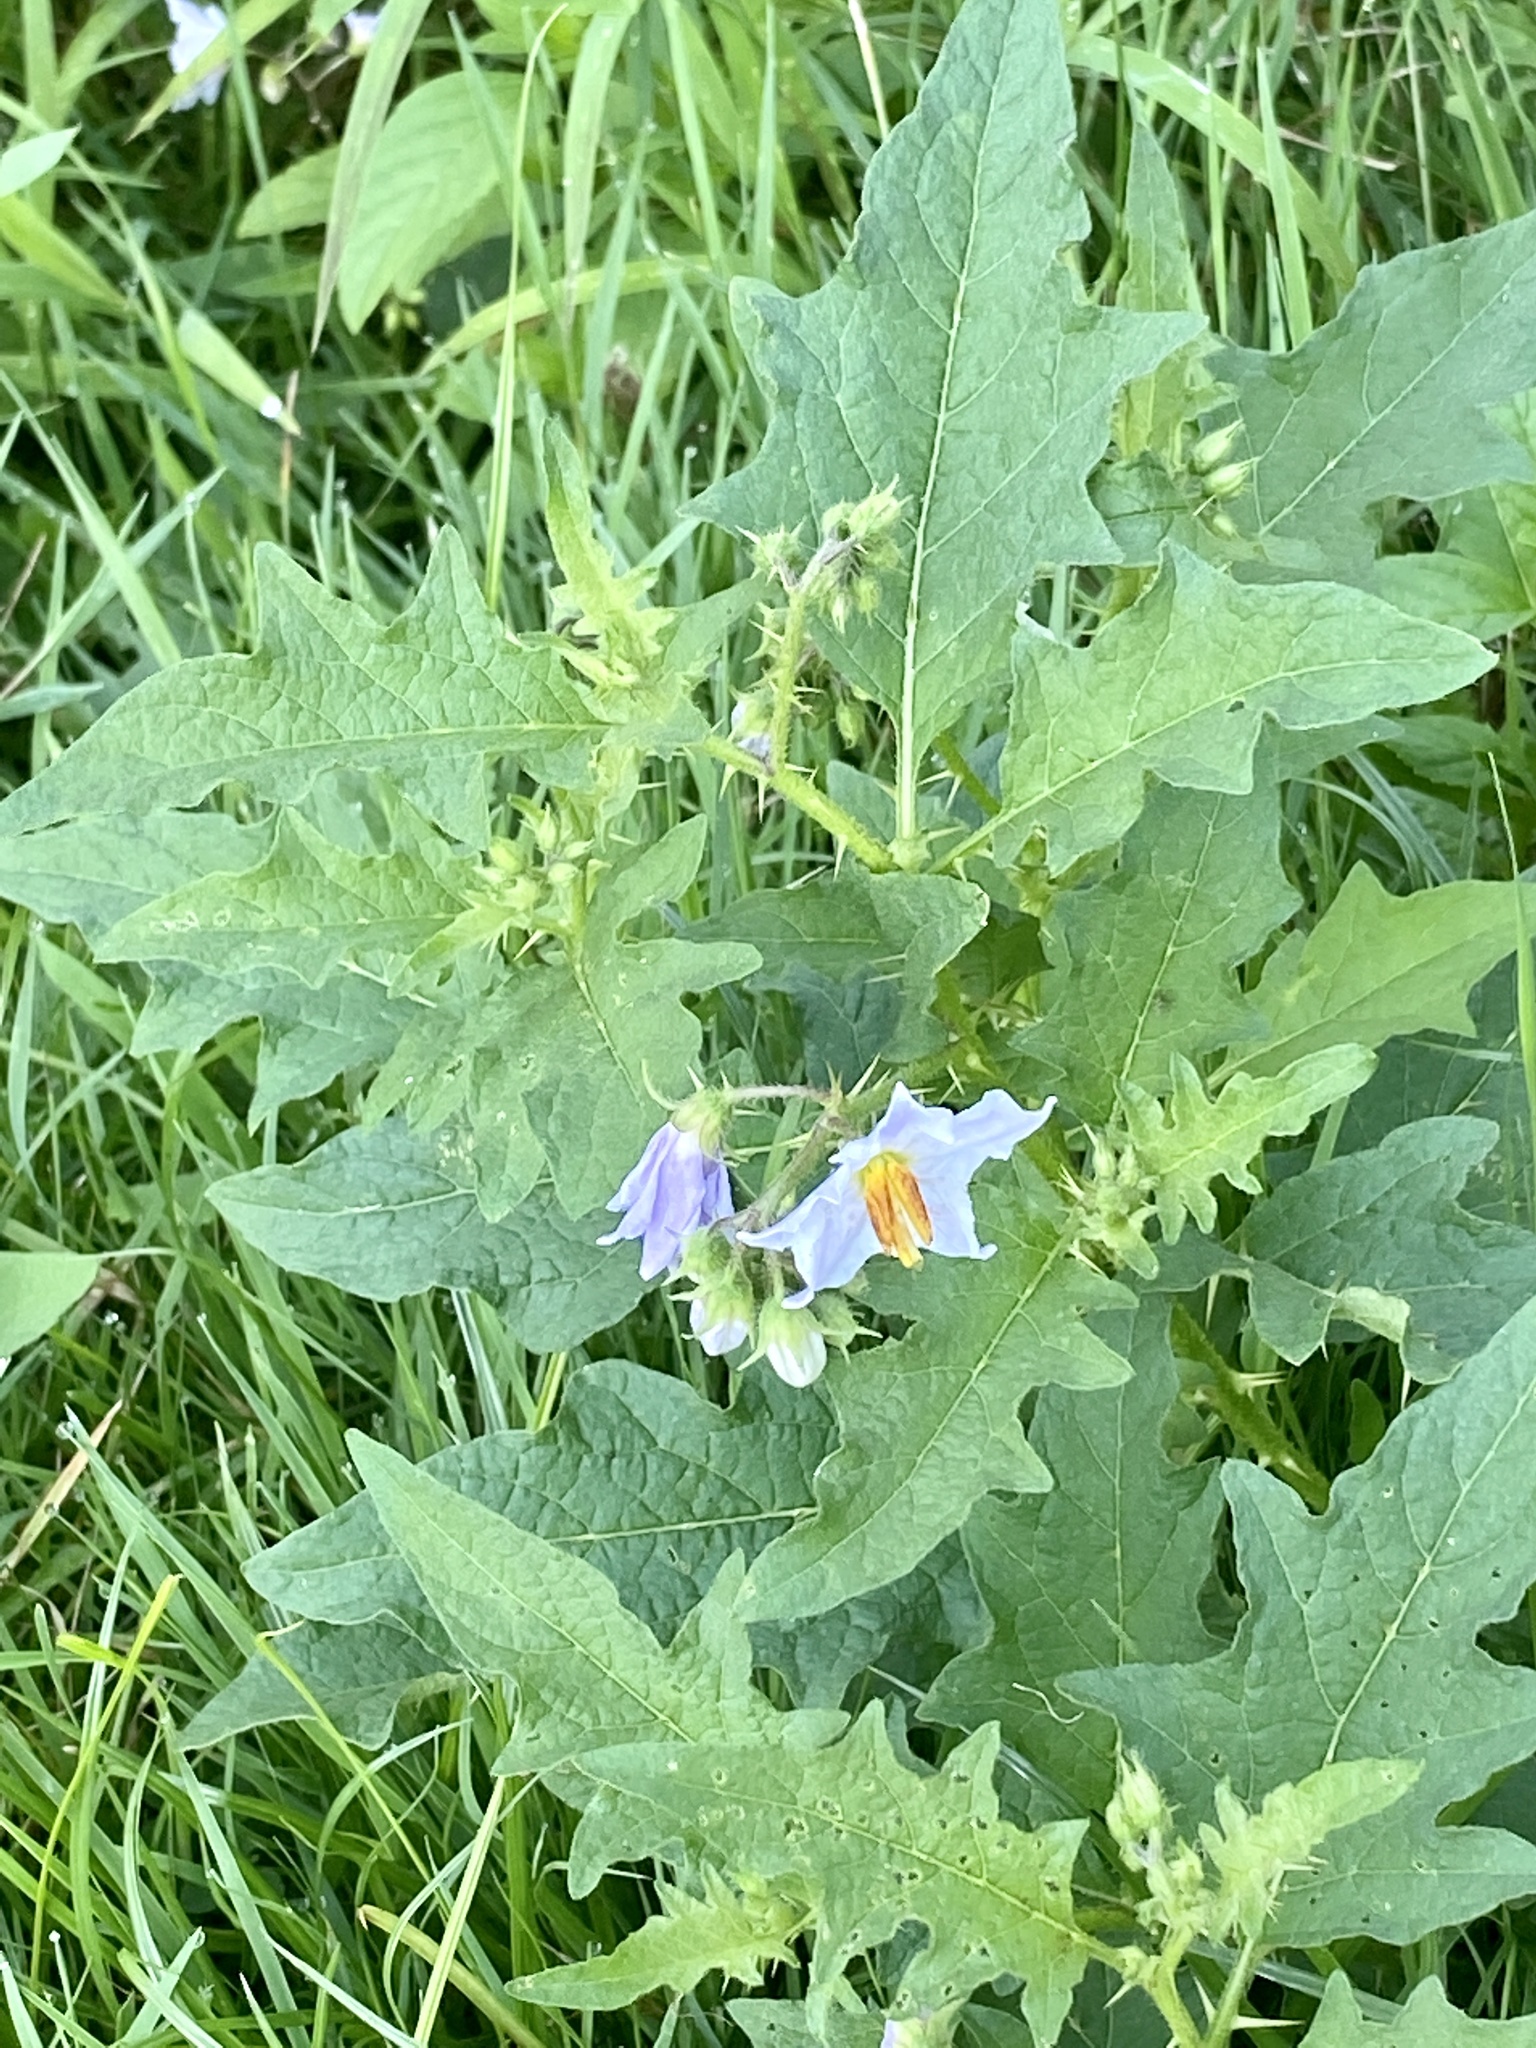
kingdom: Plantae
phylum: Tracheophyta
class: Magnoliopsida
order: Solanales
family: Solanaceae
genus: Solanum
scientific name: Solanum carolinense
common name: Horse-nettle
